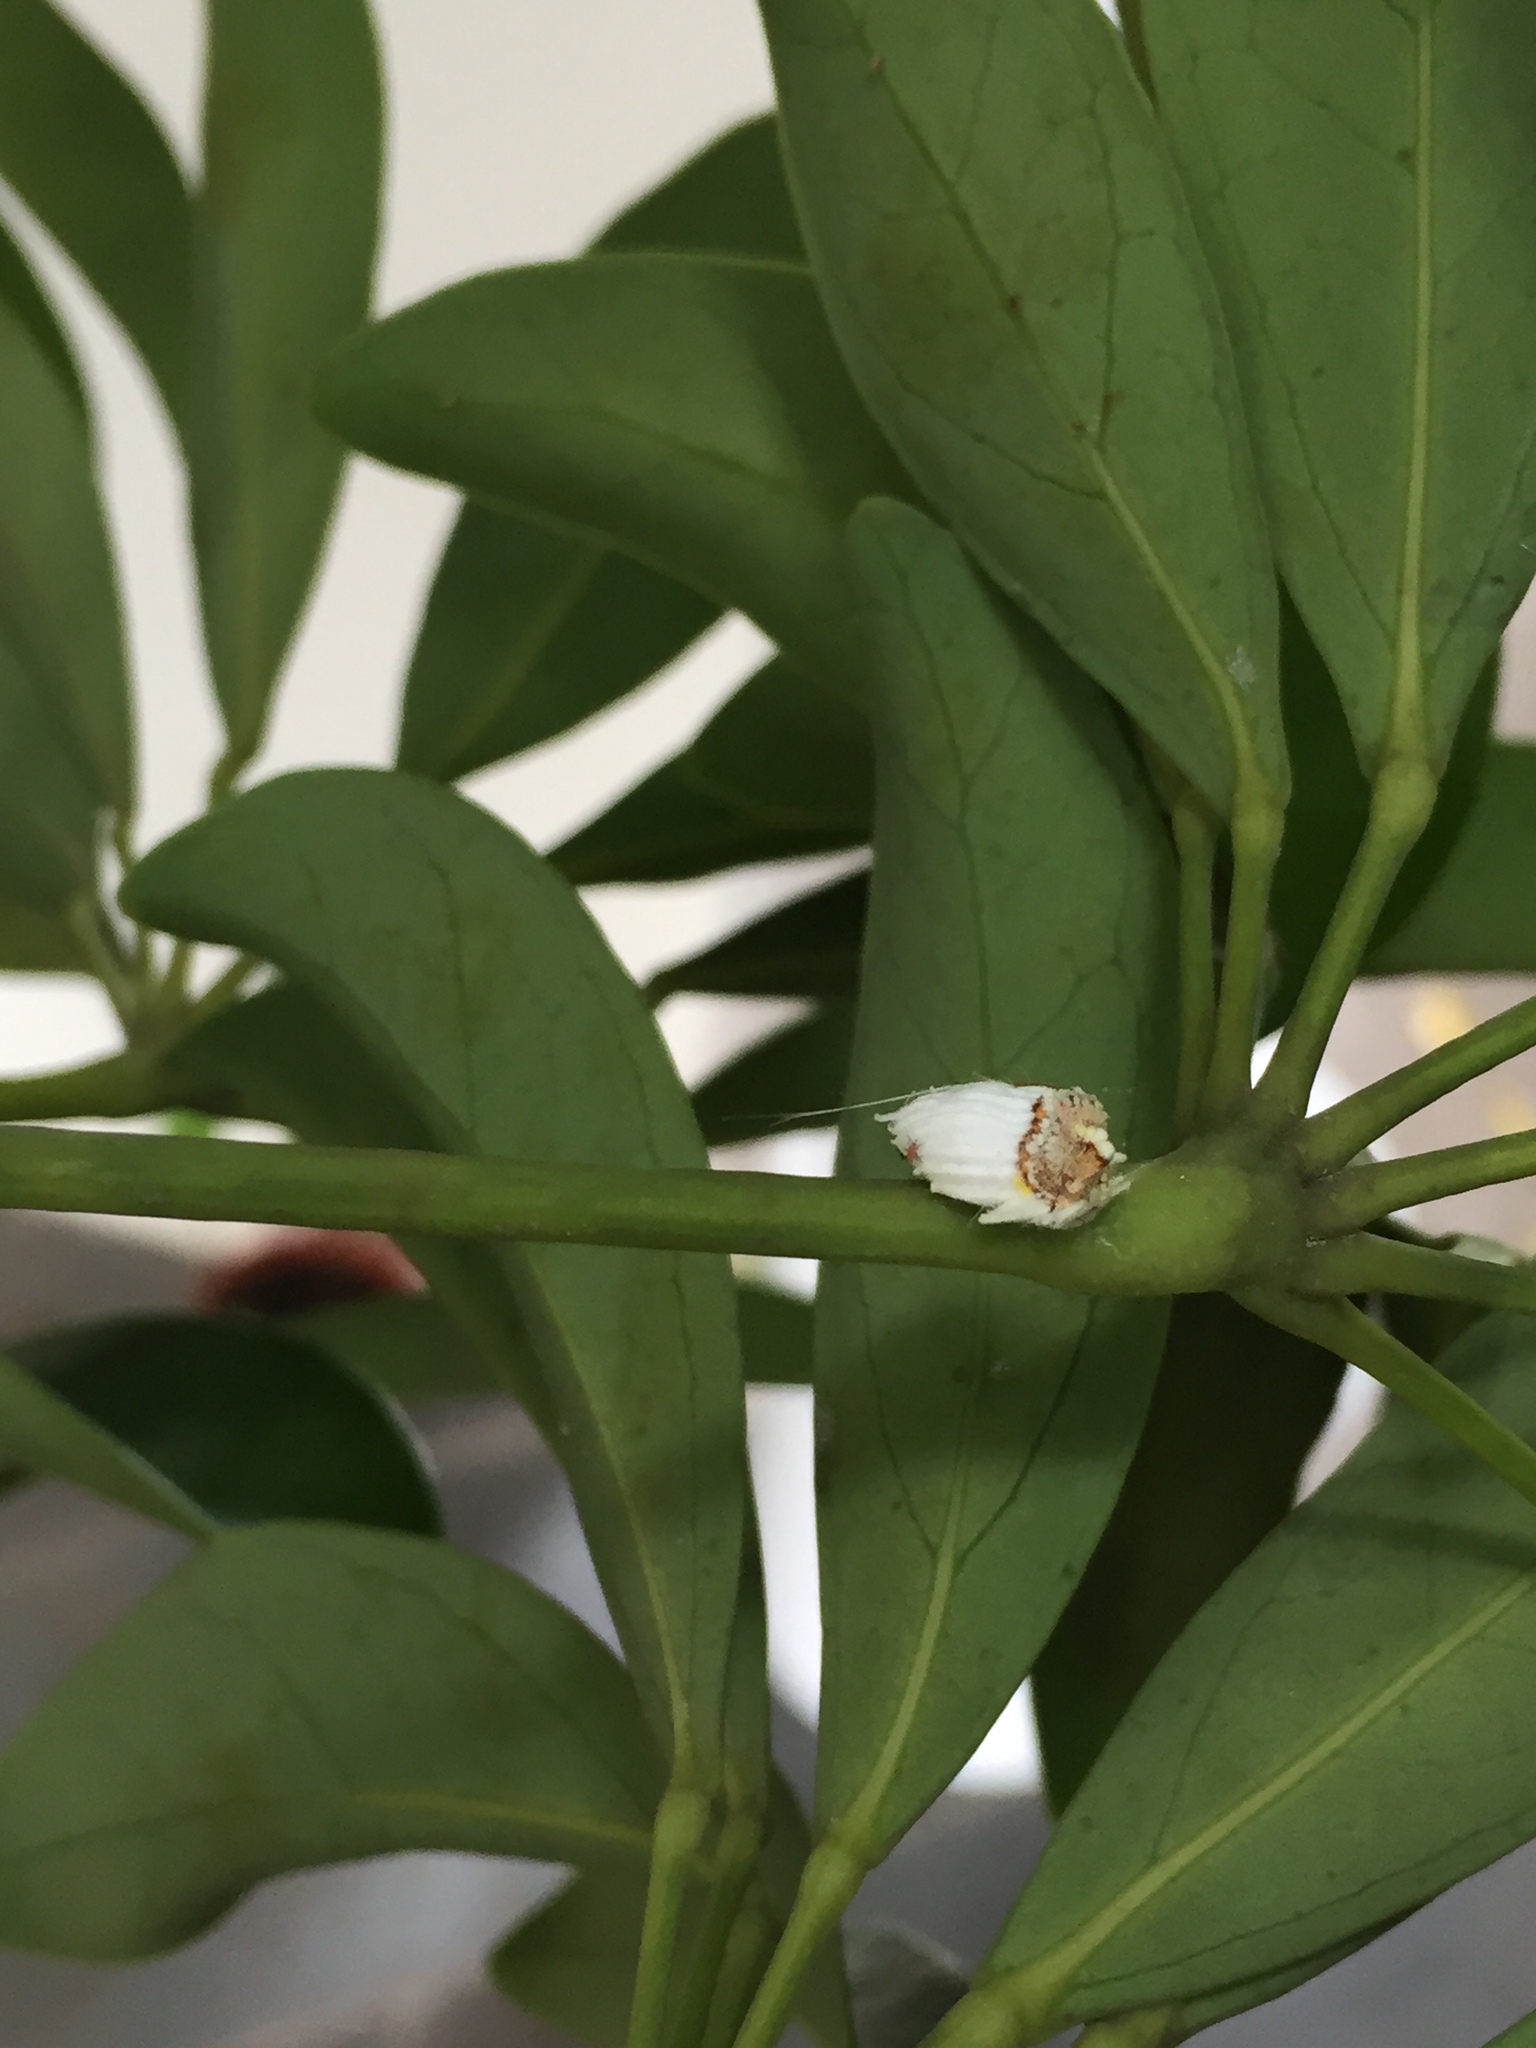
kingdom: Animalia
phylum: Arthropoda
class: Insecta
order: Hemiptera
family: Margarodidae
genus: Icerya
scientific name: Icerya purchasi
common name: Cottony cushion scale
